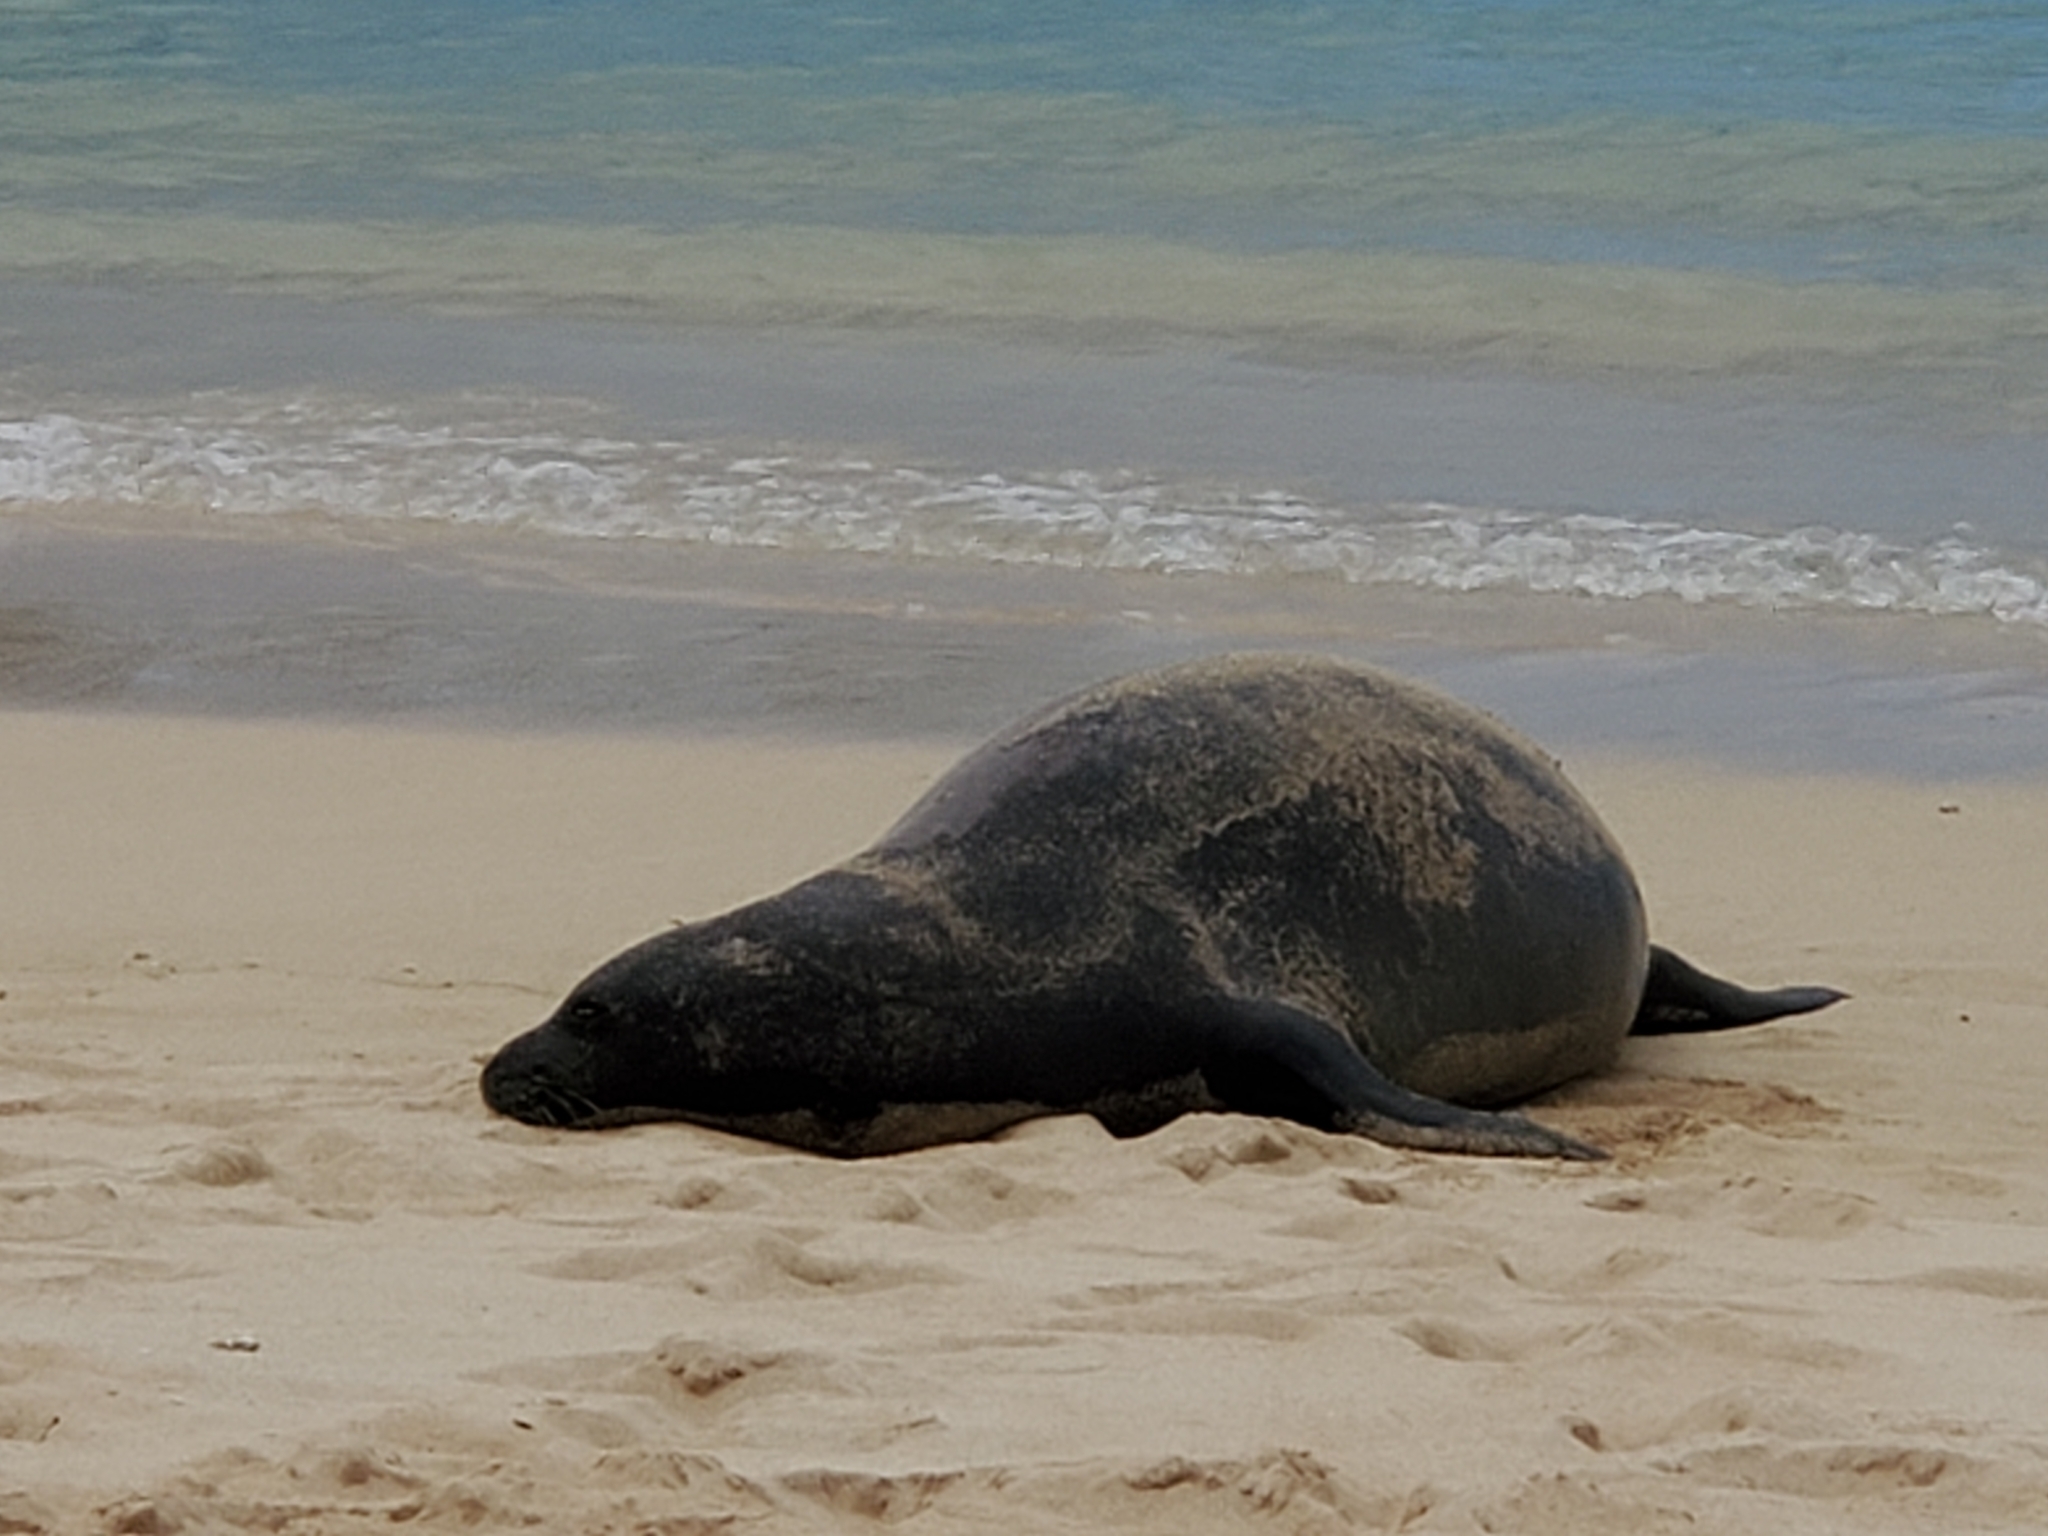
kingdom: Animalia
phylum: Chordata
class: Mammalia
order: Carnivora
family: Phocidae
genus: Neomonachus
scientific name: Neomonachus schauinslandi
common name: Hawaiian monk seal
